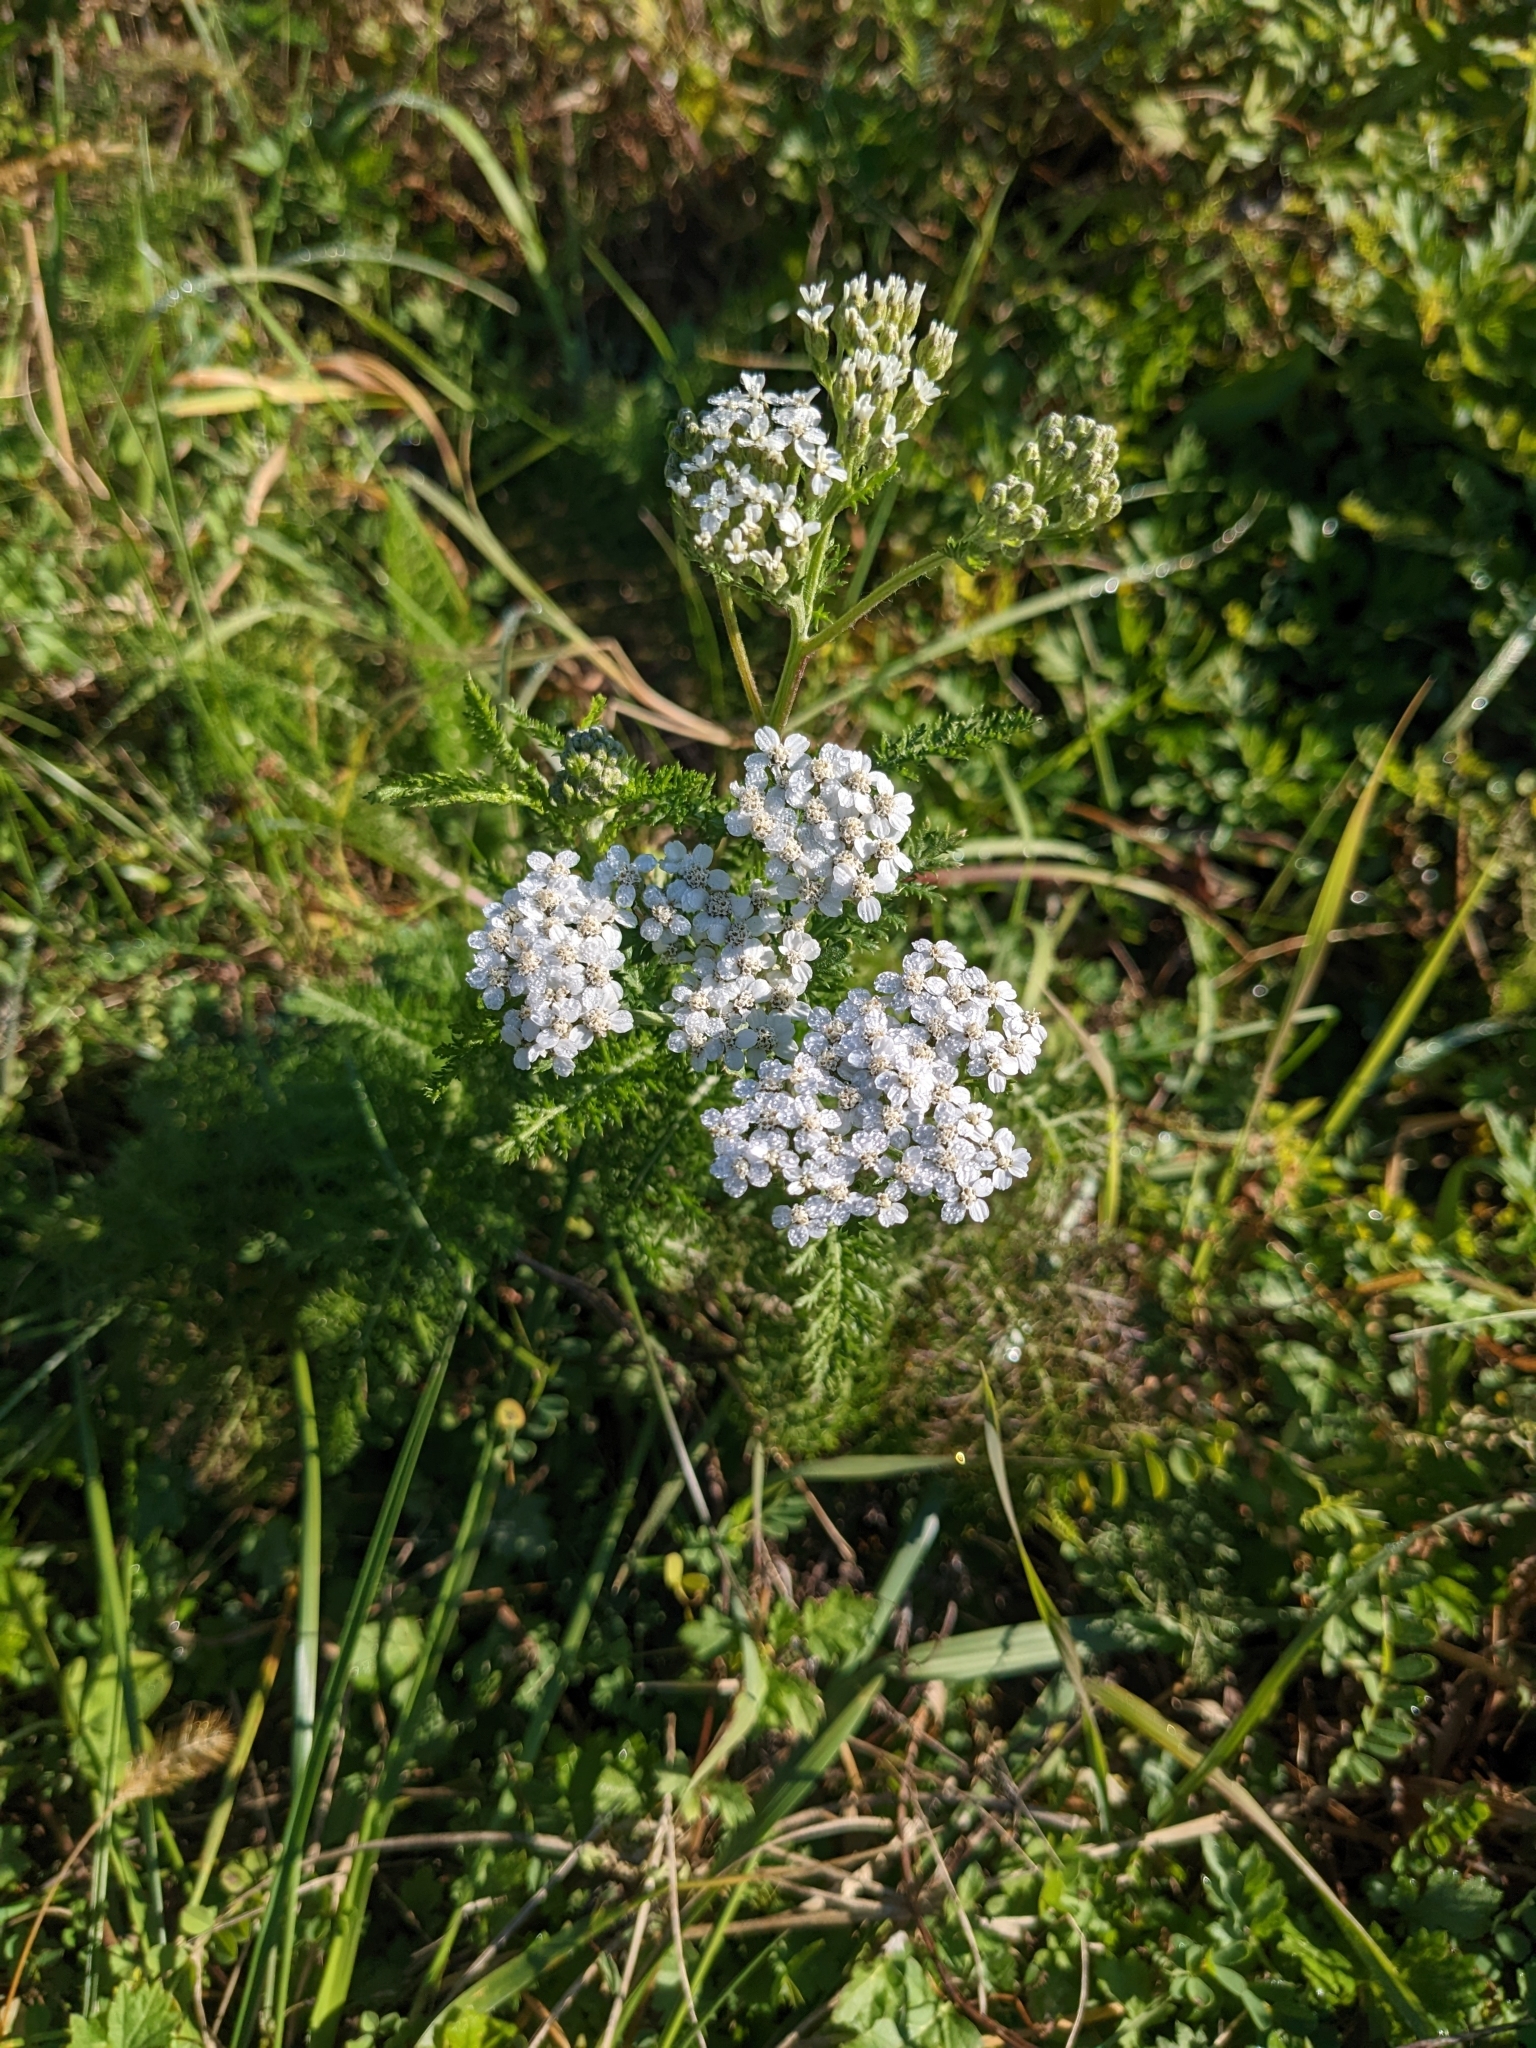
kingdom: Plantae
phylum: Tracheophyta
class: Magnoliopsida
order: Asterales
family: Asteraceae
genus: Achillea
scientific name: Achillea millefolium
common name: Yarrow
